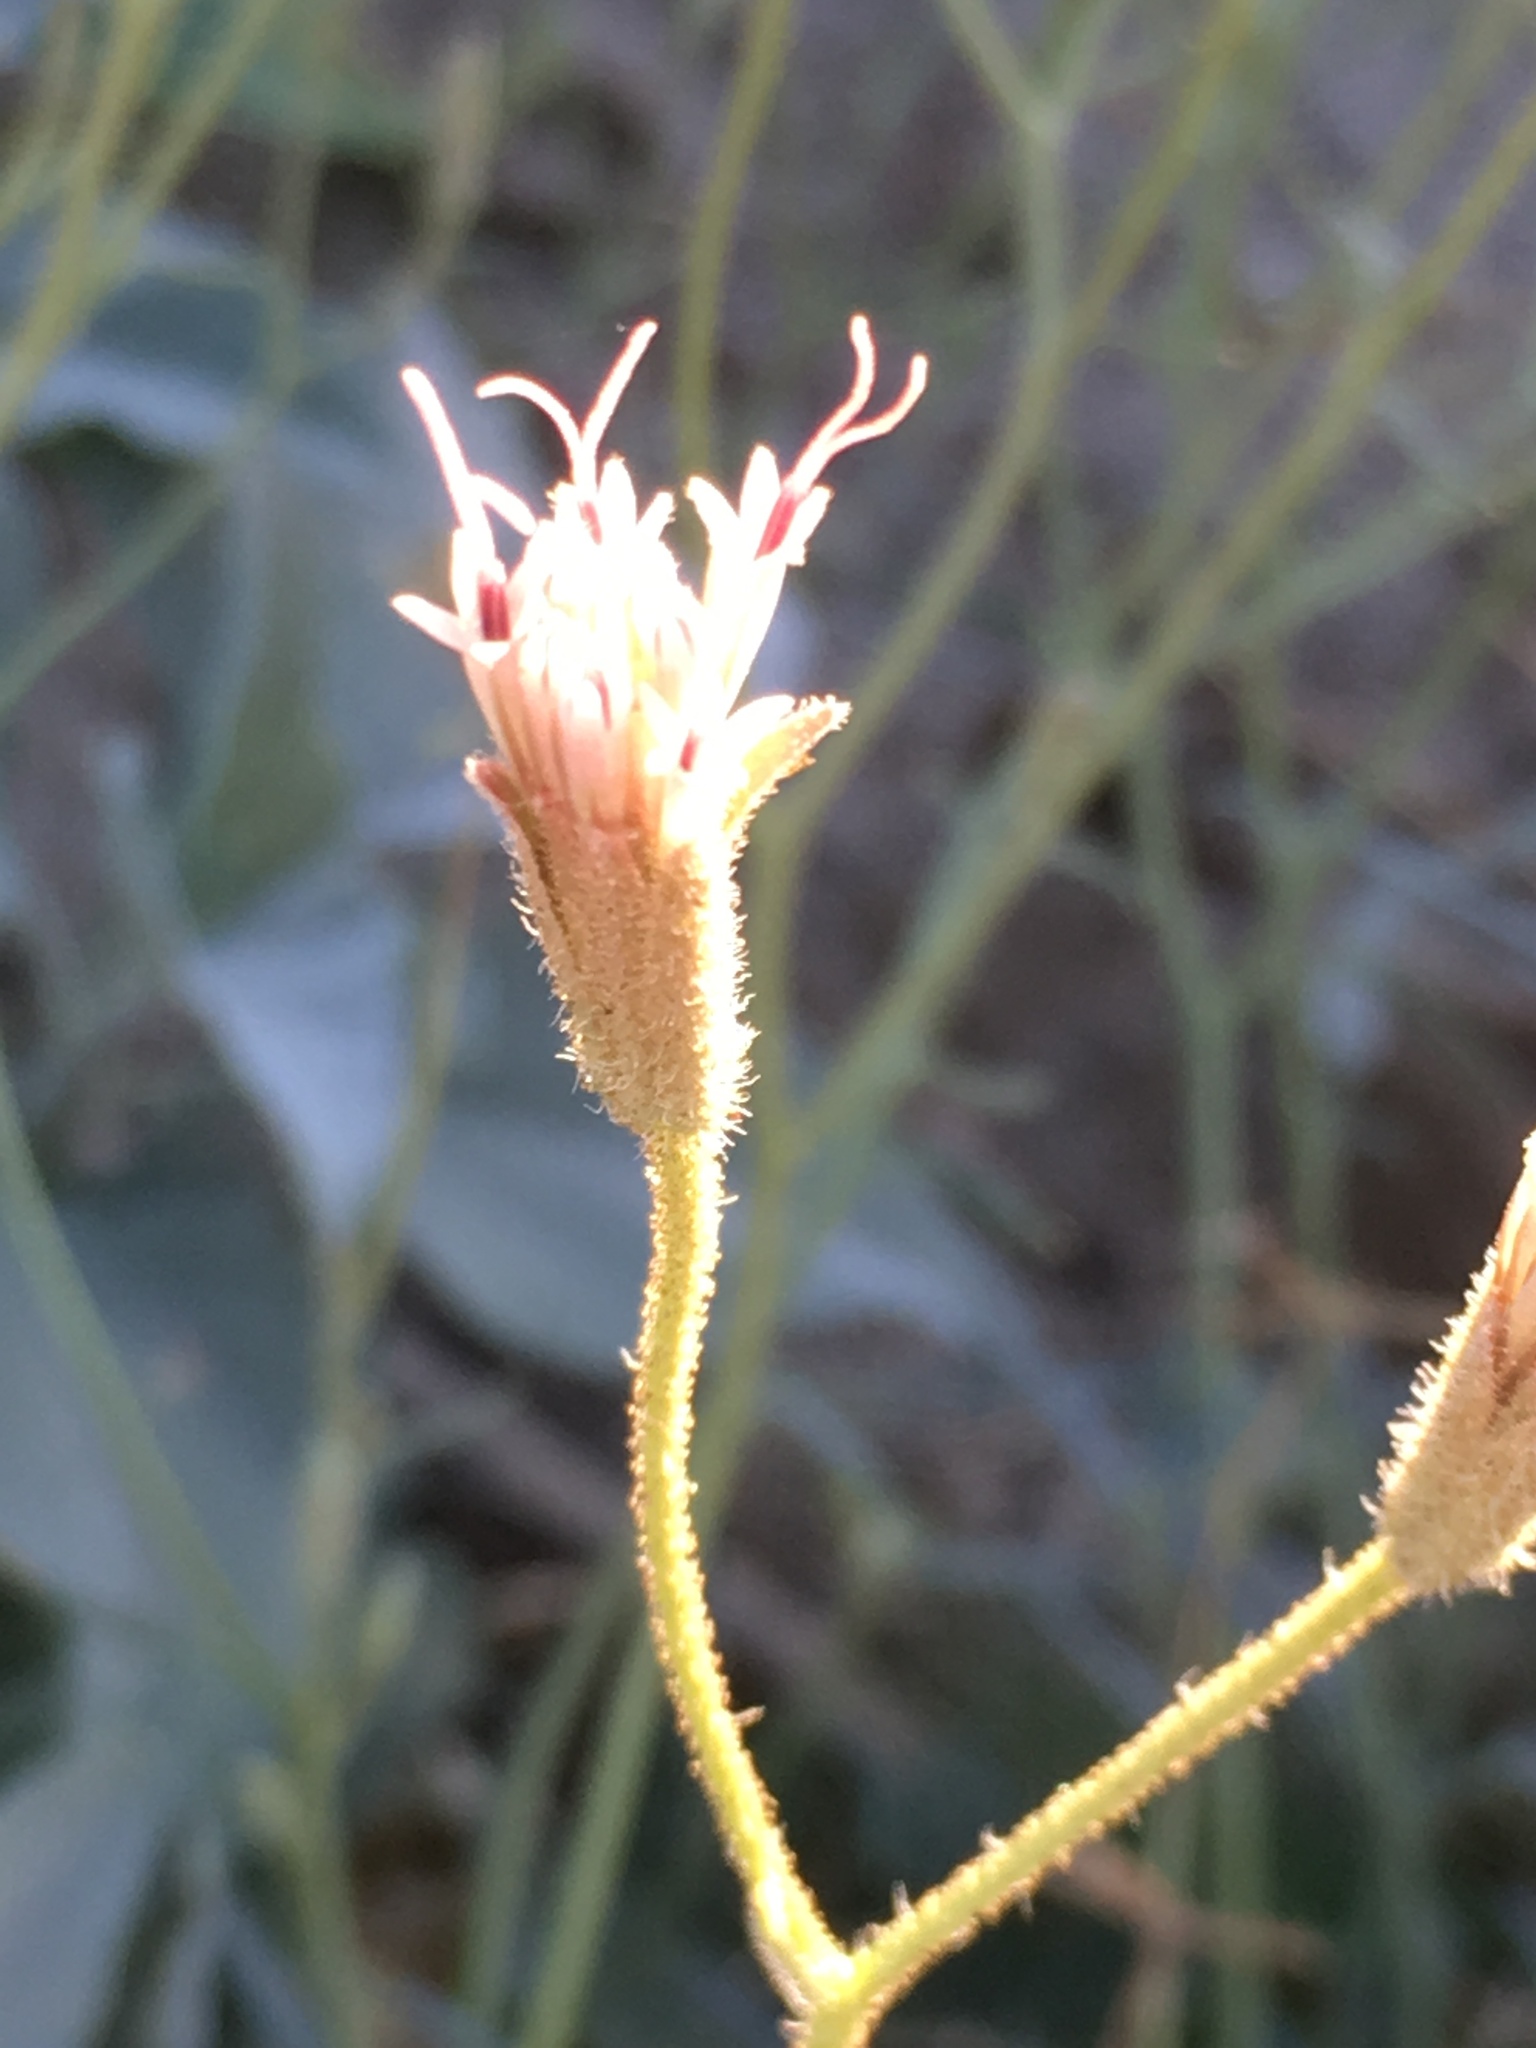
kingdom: Plantae
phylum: Tracheophyta
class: Magnoliopsida
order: Asterales
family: Asteraceae
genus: Palafoxia
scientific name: Palafoxia arida
